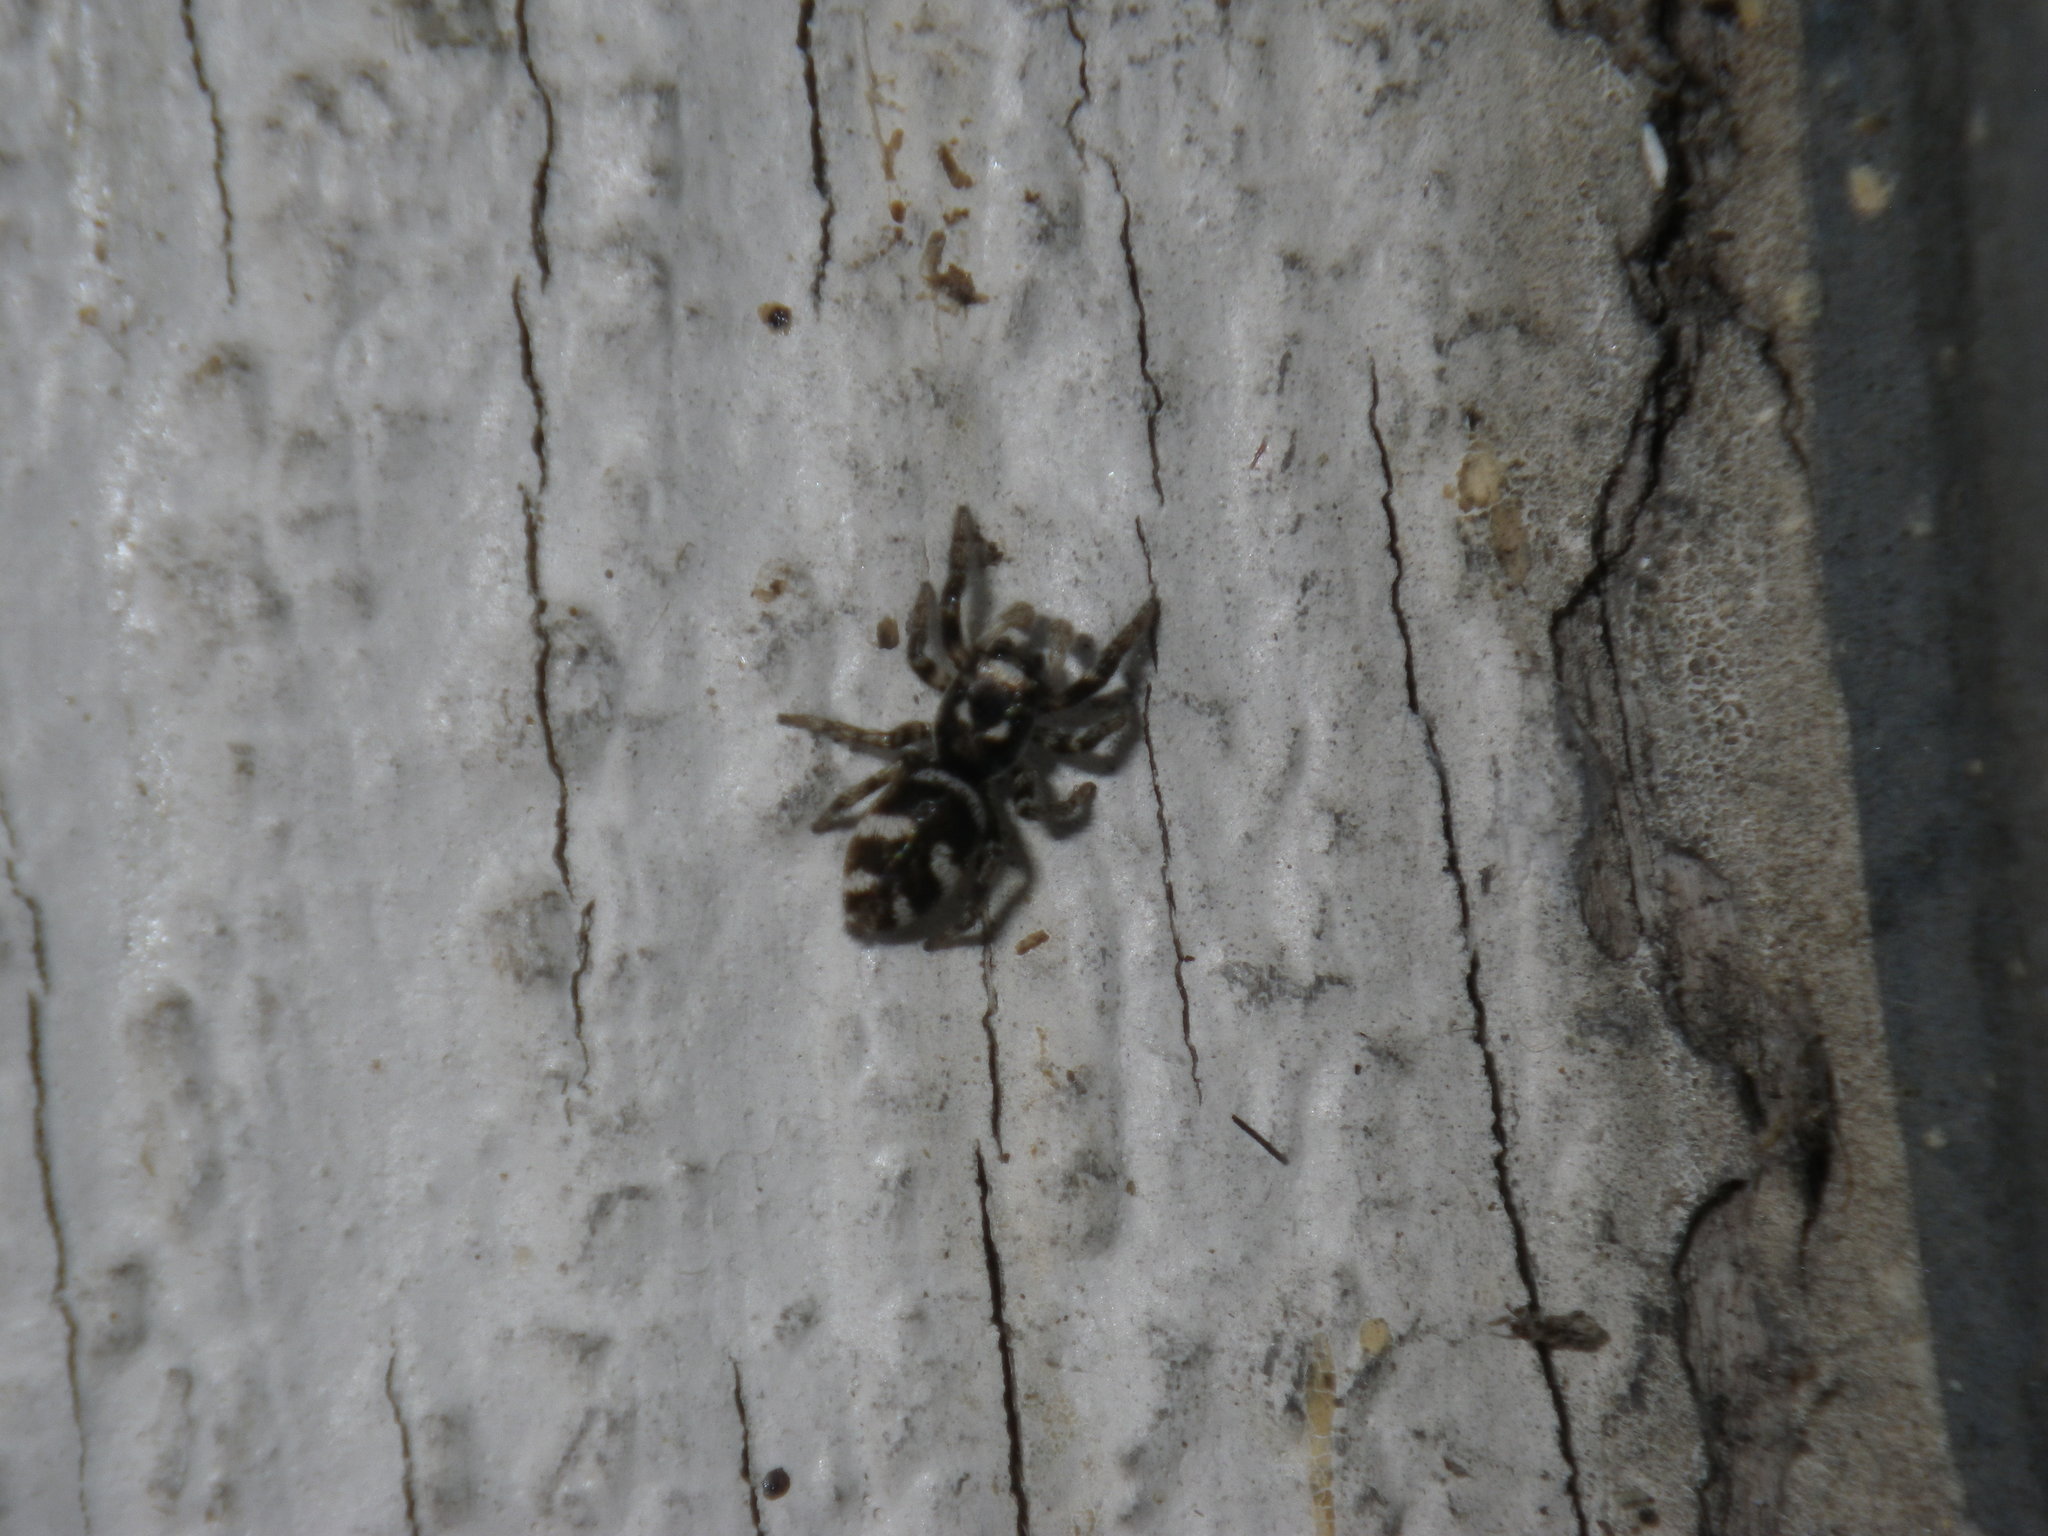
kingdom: Animalia
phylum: Arthropoda
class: Arachnida
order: Araneae
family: Salticidae
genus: Salticus
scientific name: Salticus scenicus
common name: Zebra jumper
